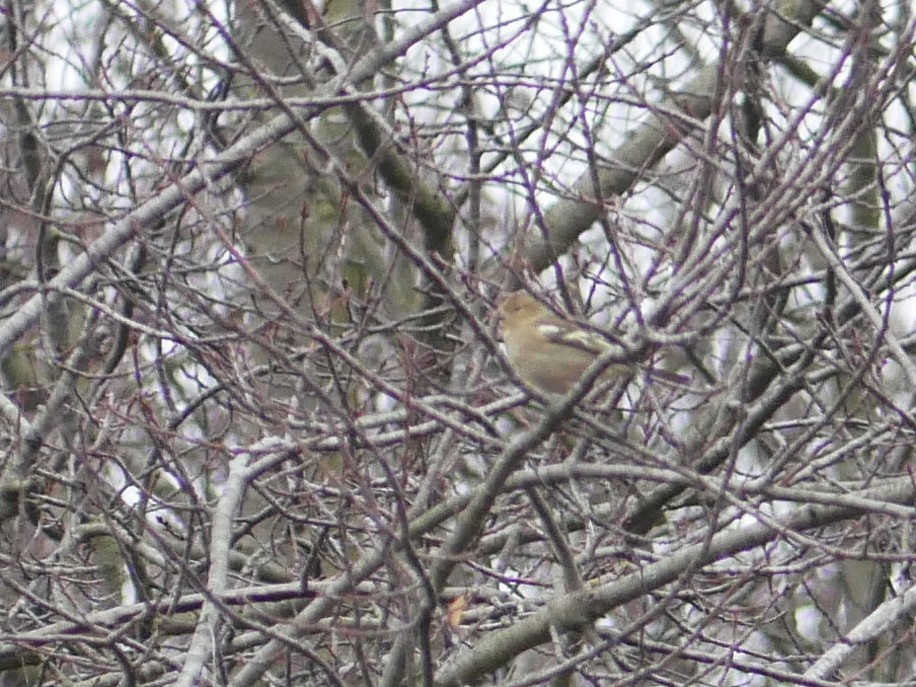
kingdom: Animalia
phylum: Chordata
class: Aves
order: Passeriformes
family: Fringillidae
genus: Fringilla
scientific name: Fringilla coelebs
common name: Common chaffinch
